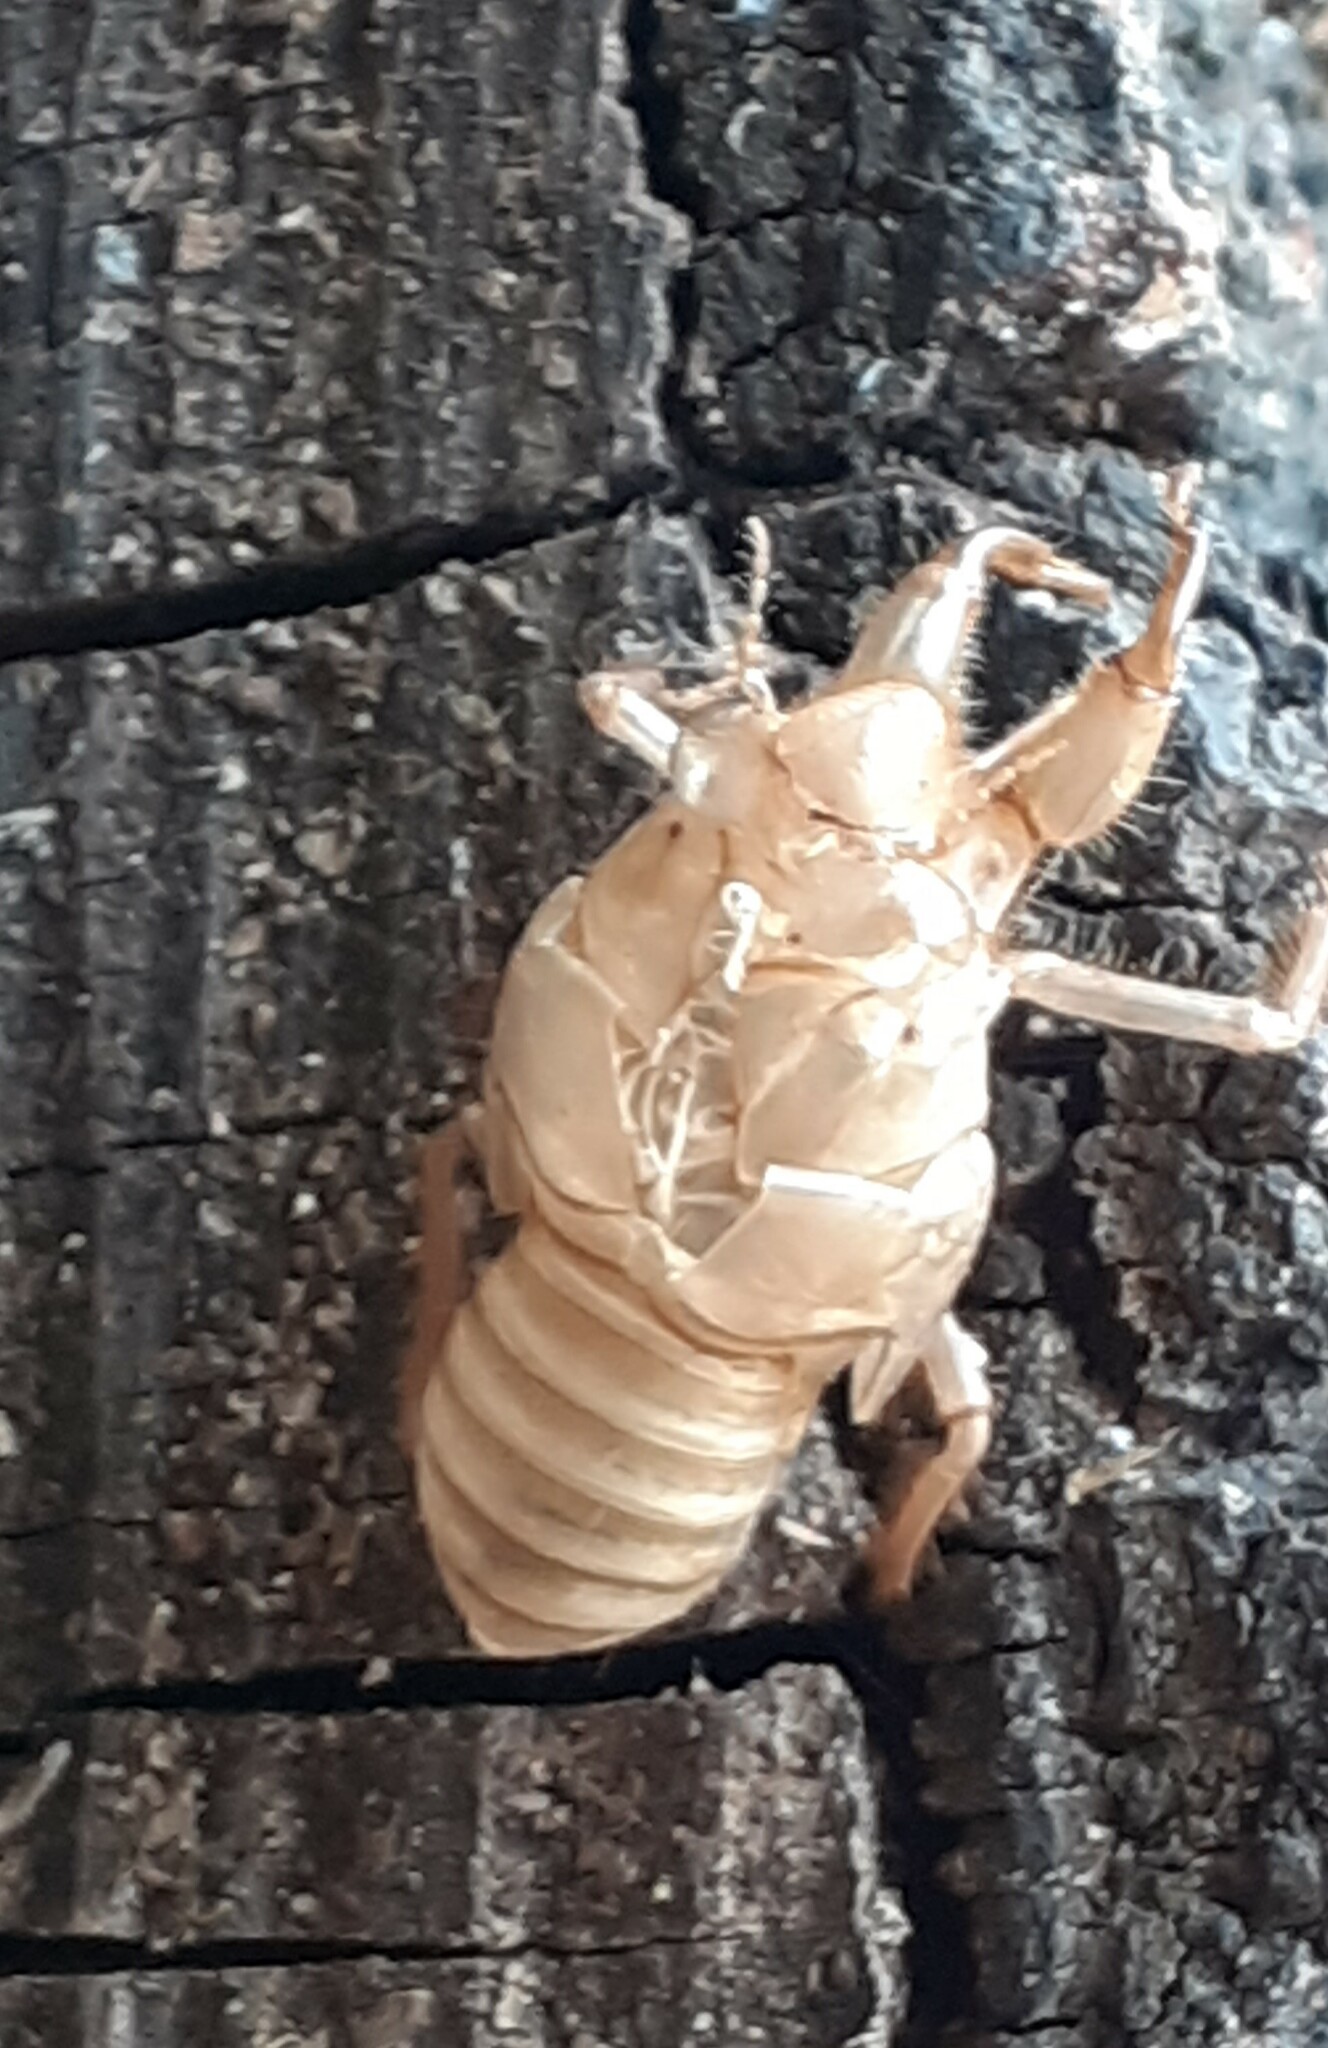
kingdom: Animalia
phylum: Arthropoda
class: Insecta
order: Hemiptera
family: Cicadidae
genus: Cicada
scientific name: Cicada orni
